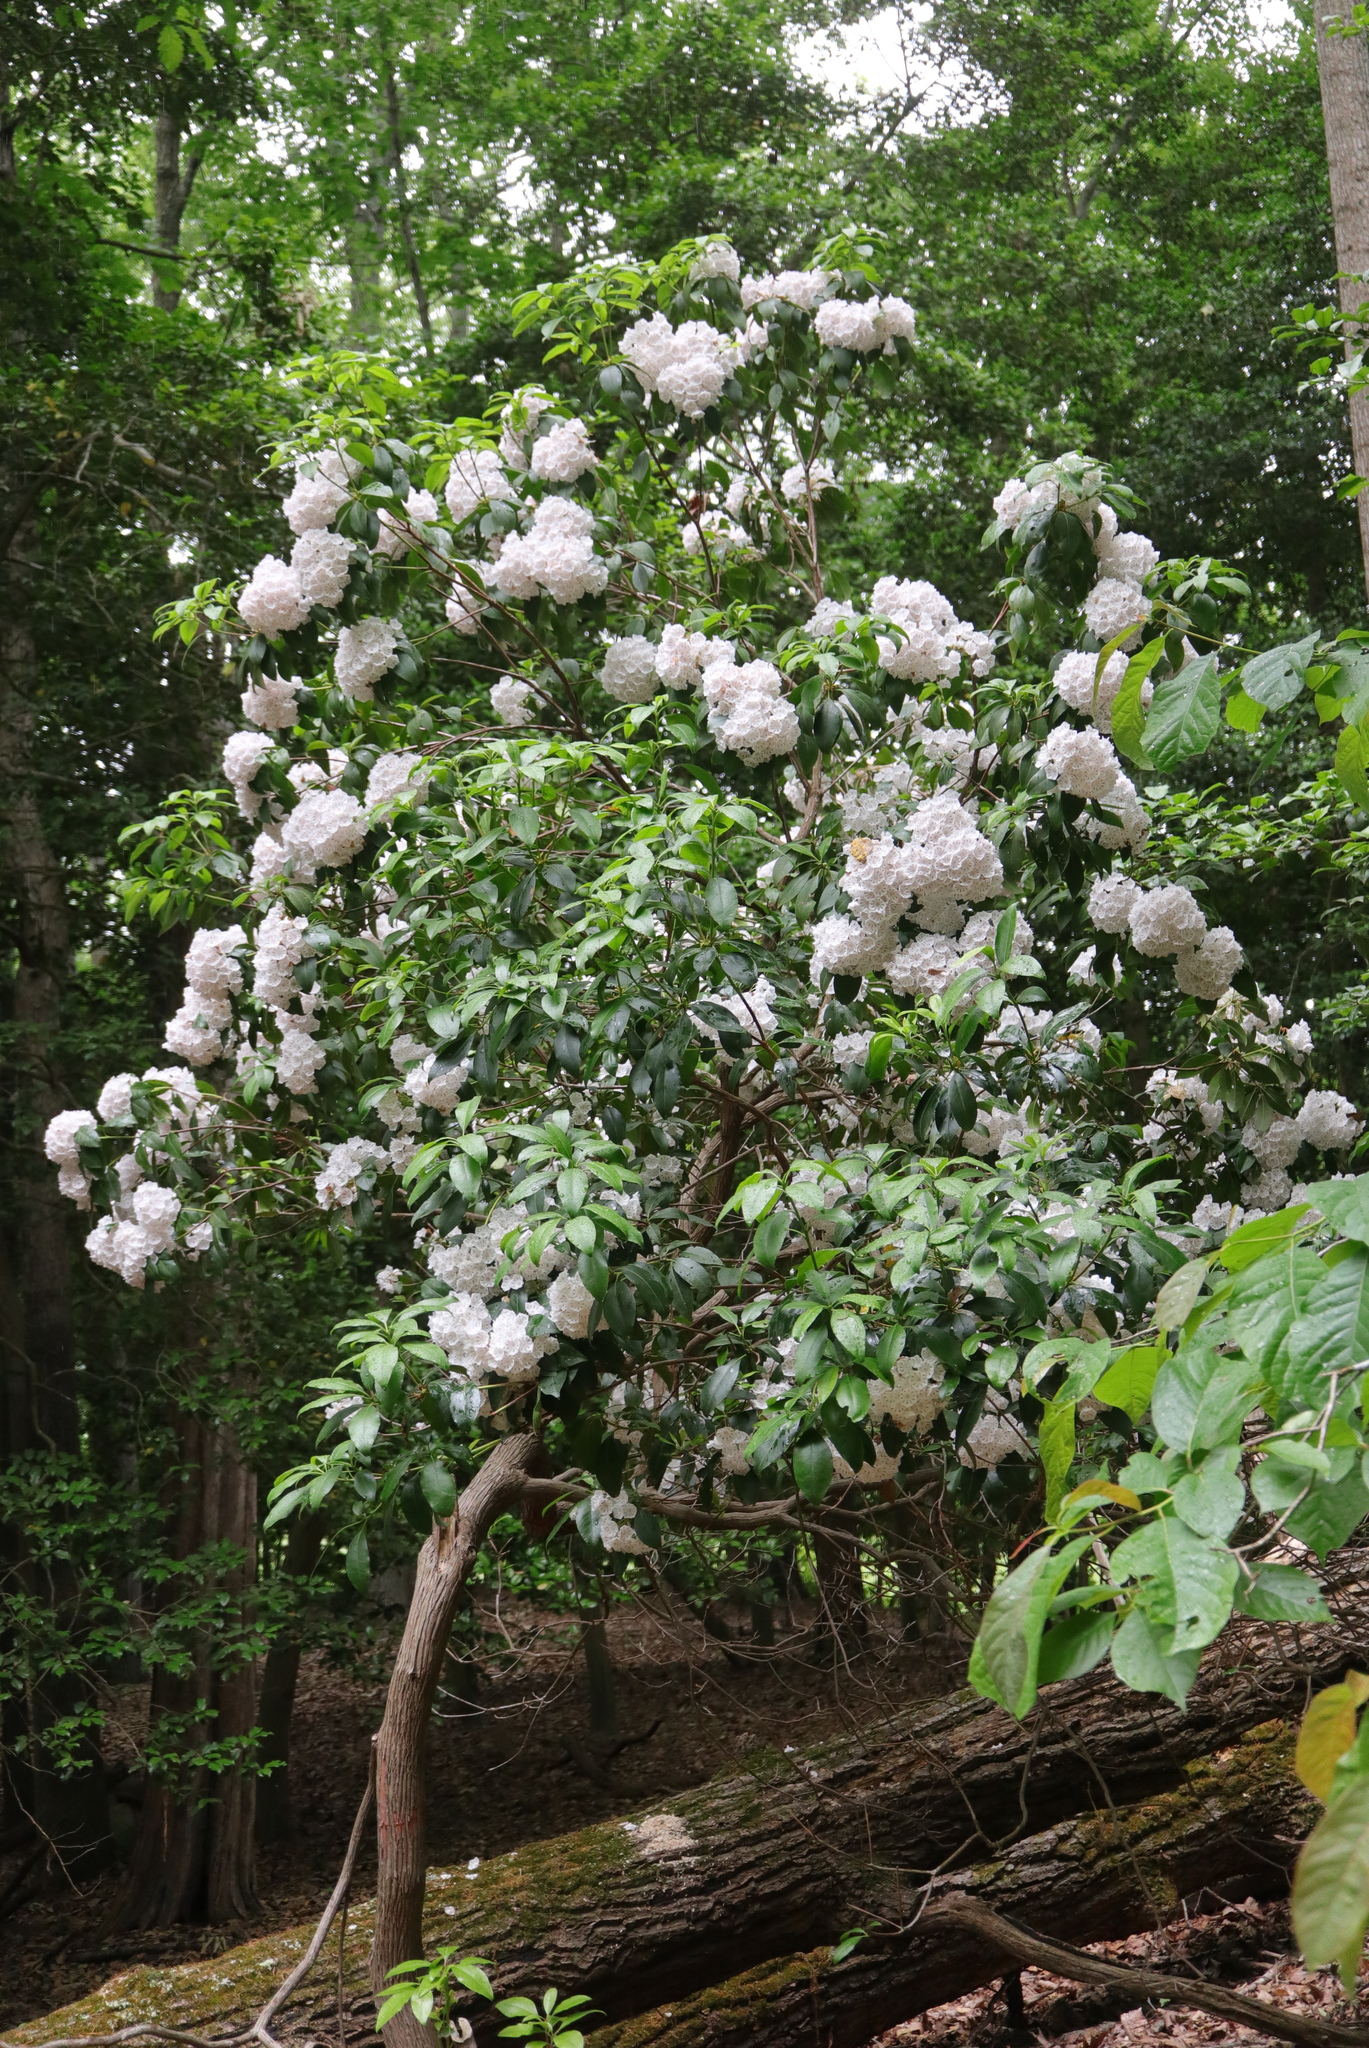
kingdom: Plantae
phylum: Tracheophyta
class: Magnoliopsida
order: Ericales
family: Ericaceae
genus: Kalmia
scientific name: Kalmia latifolia
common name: Mountain-laurel
